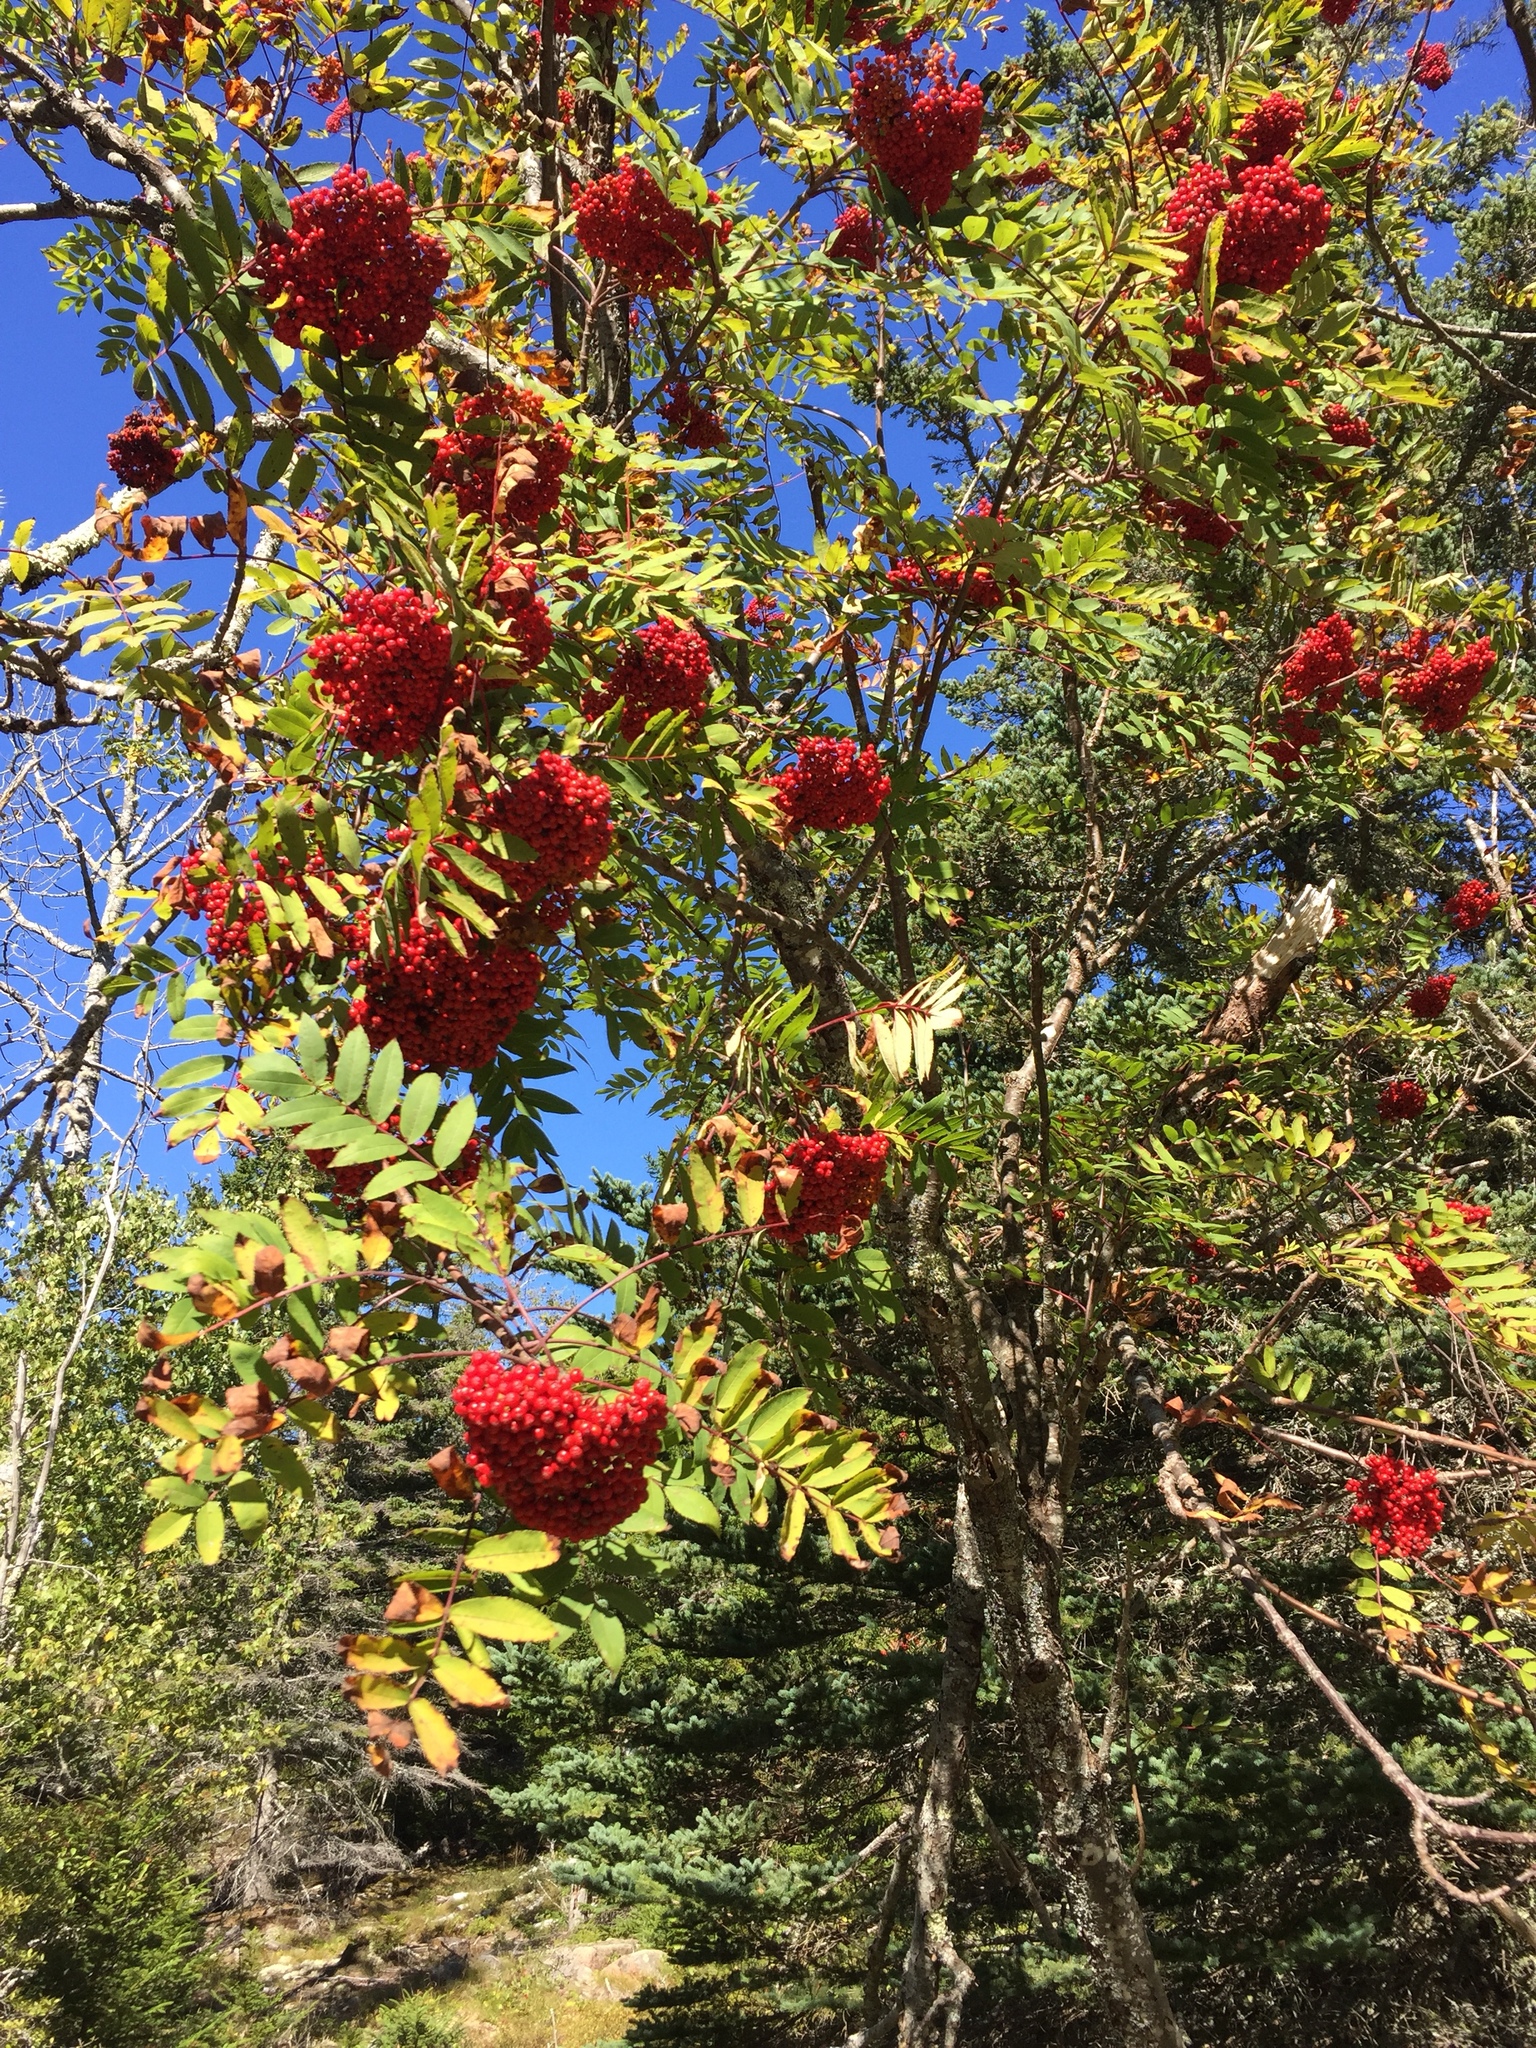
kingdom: Plantae
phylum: Tracheophyta
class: Magnoliopsida
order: Rosales
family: Rosaceae
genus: Sorbus
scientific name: Sorbus americana
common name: American mountain-ash
